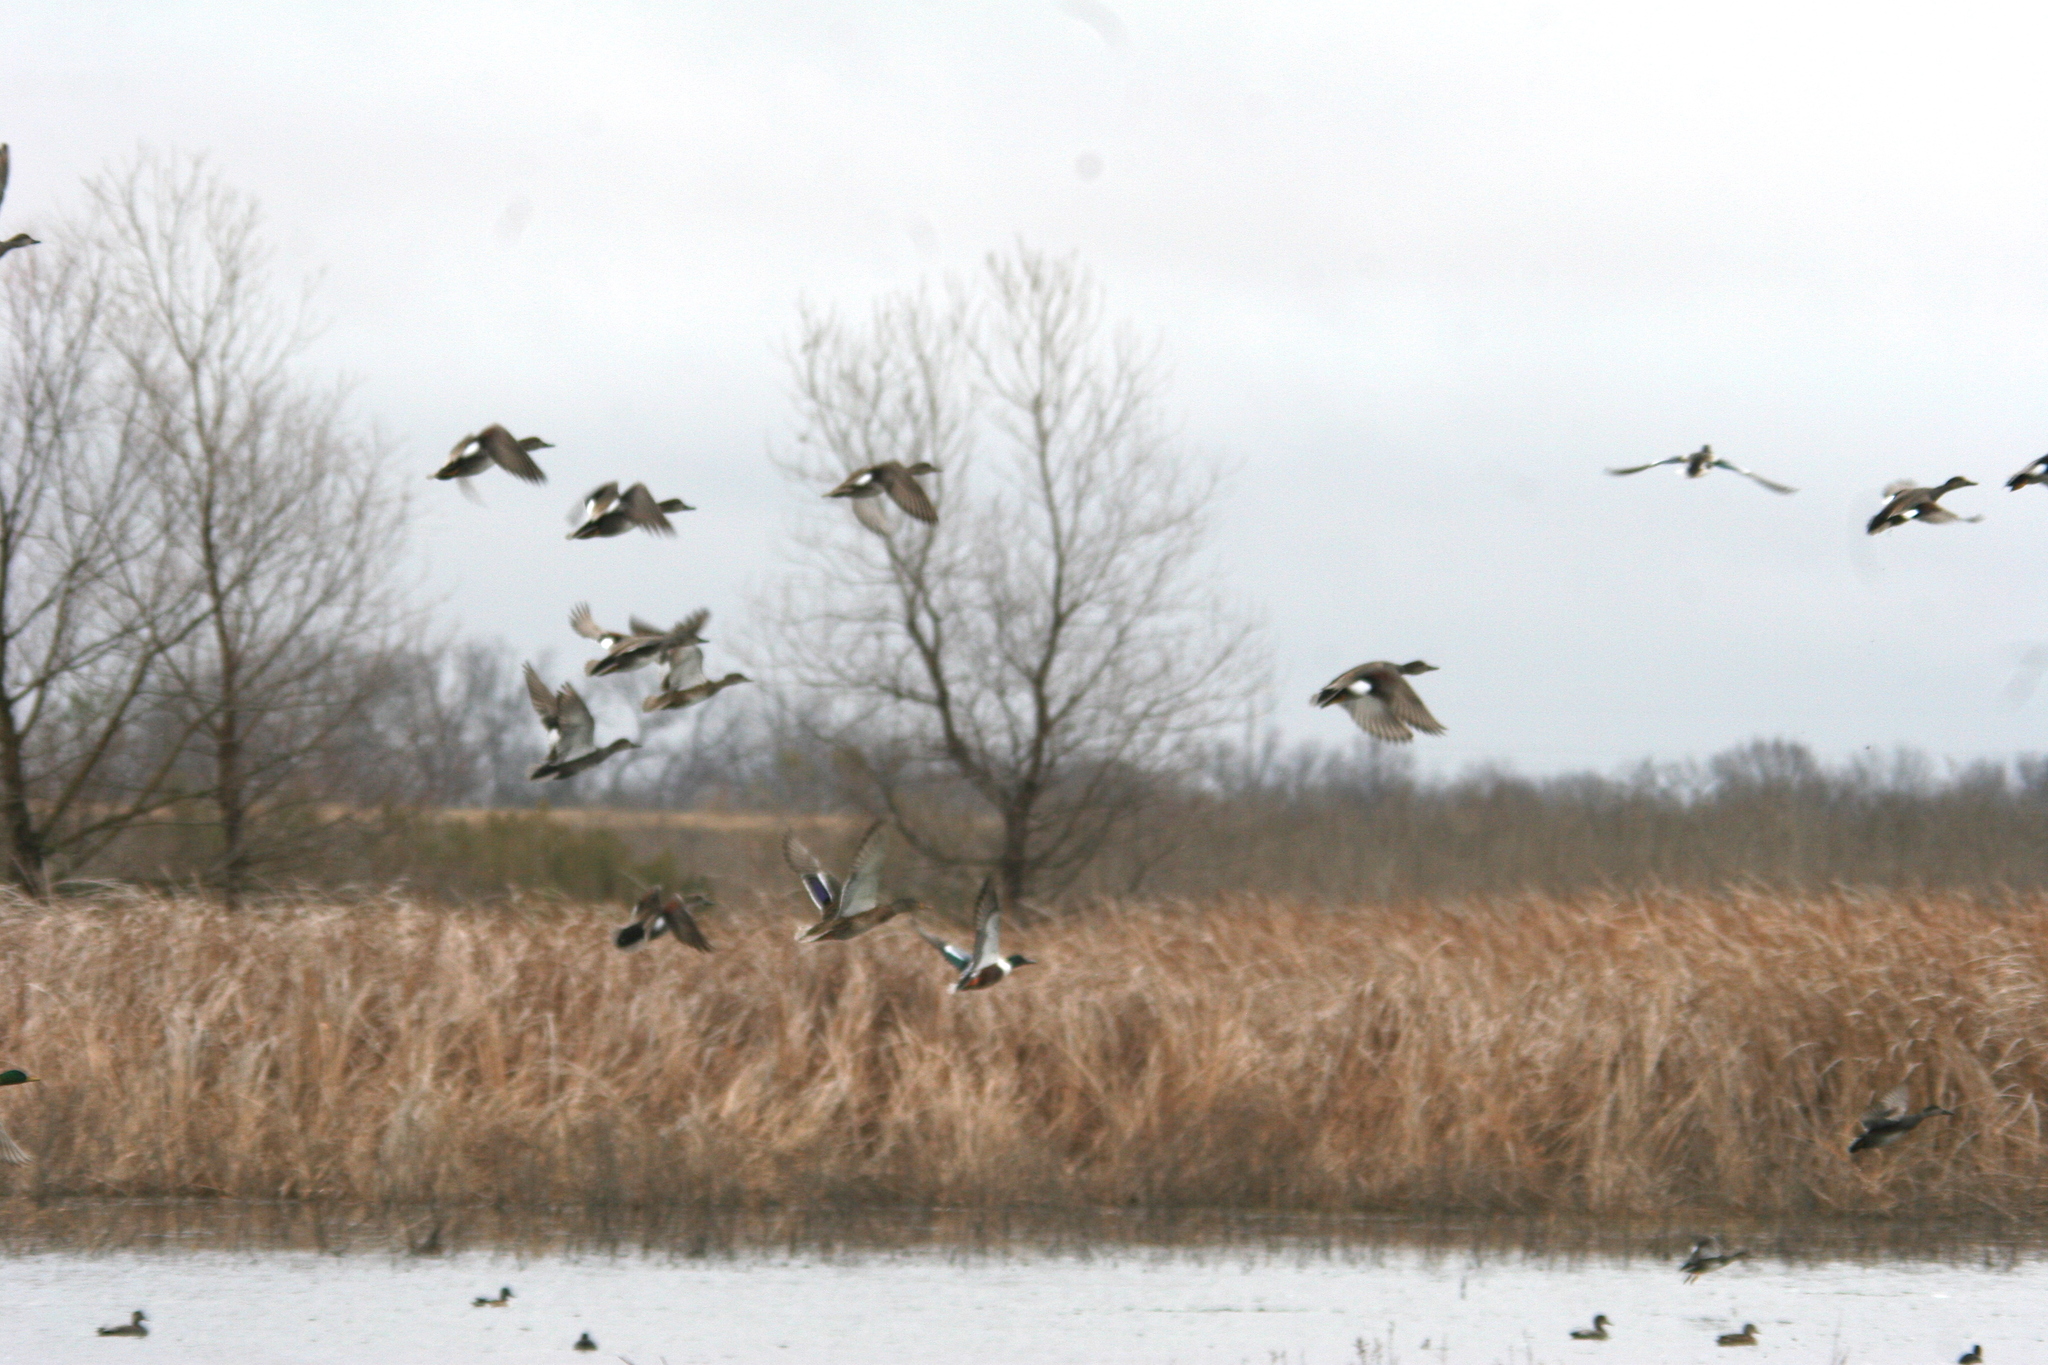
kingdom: Animalia
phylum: Chordata
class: Aves
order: Anseriformes
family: Anatidae
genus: Spatula
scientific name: Spatula clypeata
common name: Northern shoveler
